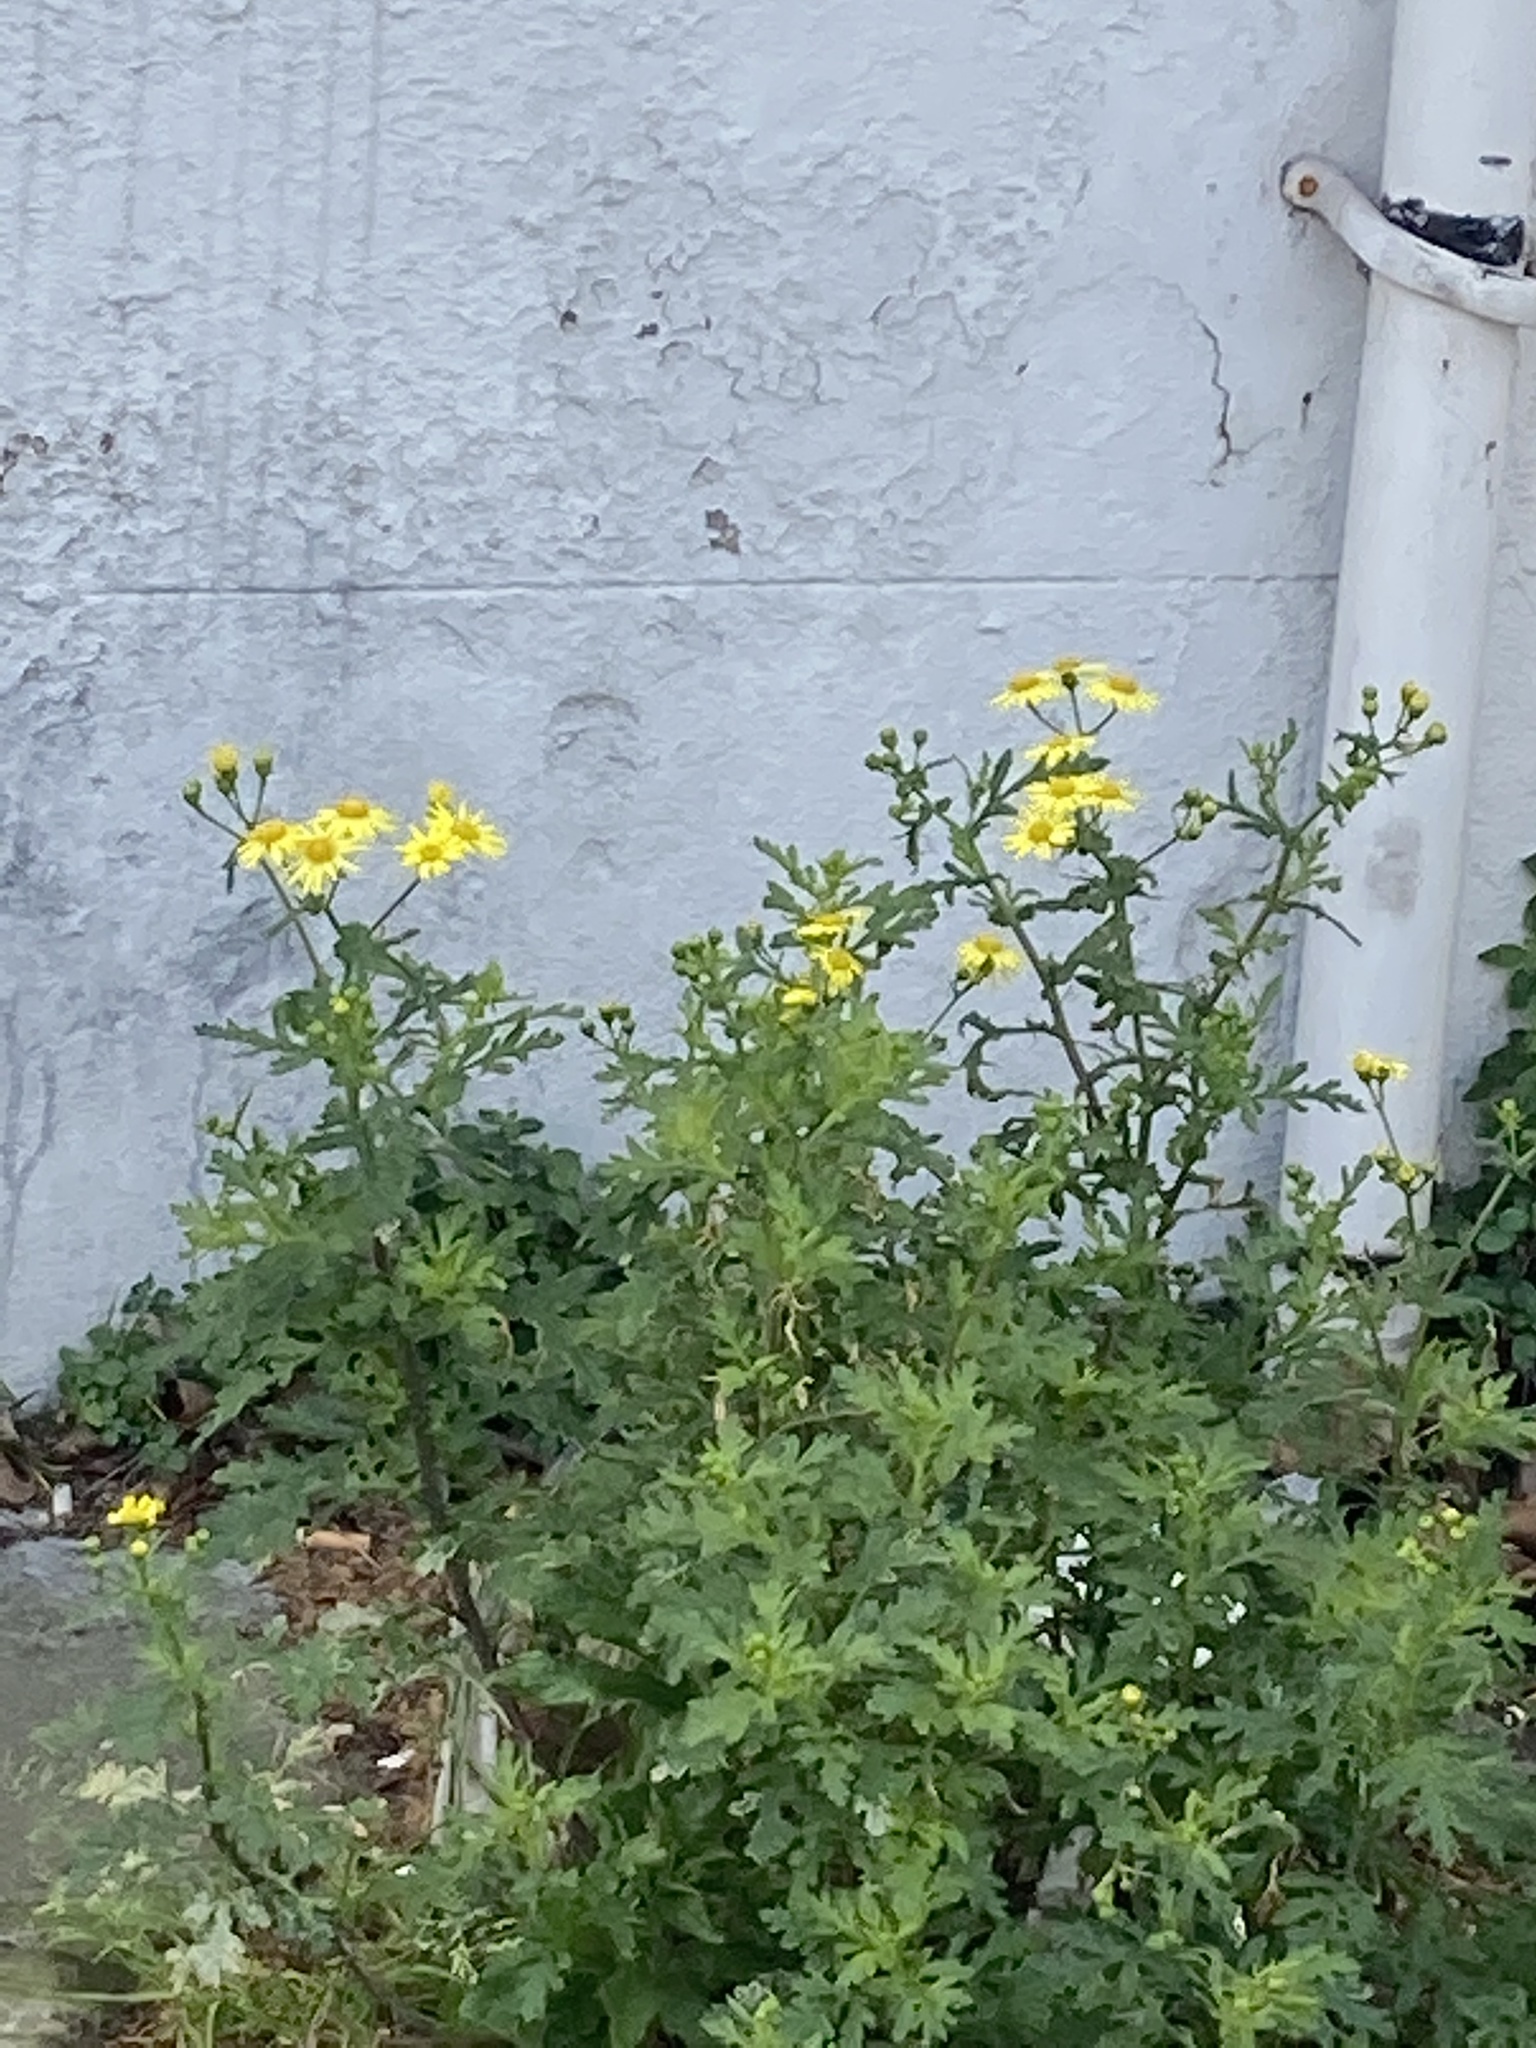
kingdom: Plantae
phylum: Tracheophyta
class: Magnoliopsida
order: Asterales
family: Asteraceae
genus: Senecio
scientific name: Senecio squalidus
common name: Oxford ragwort
